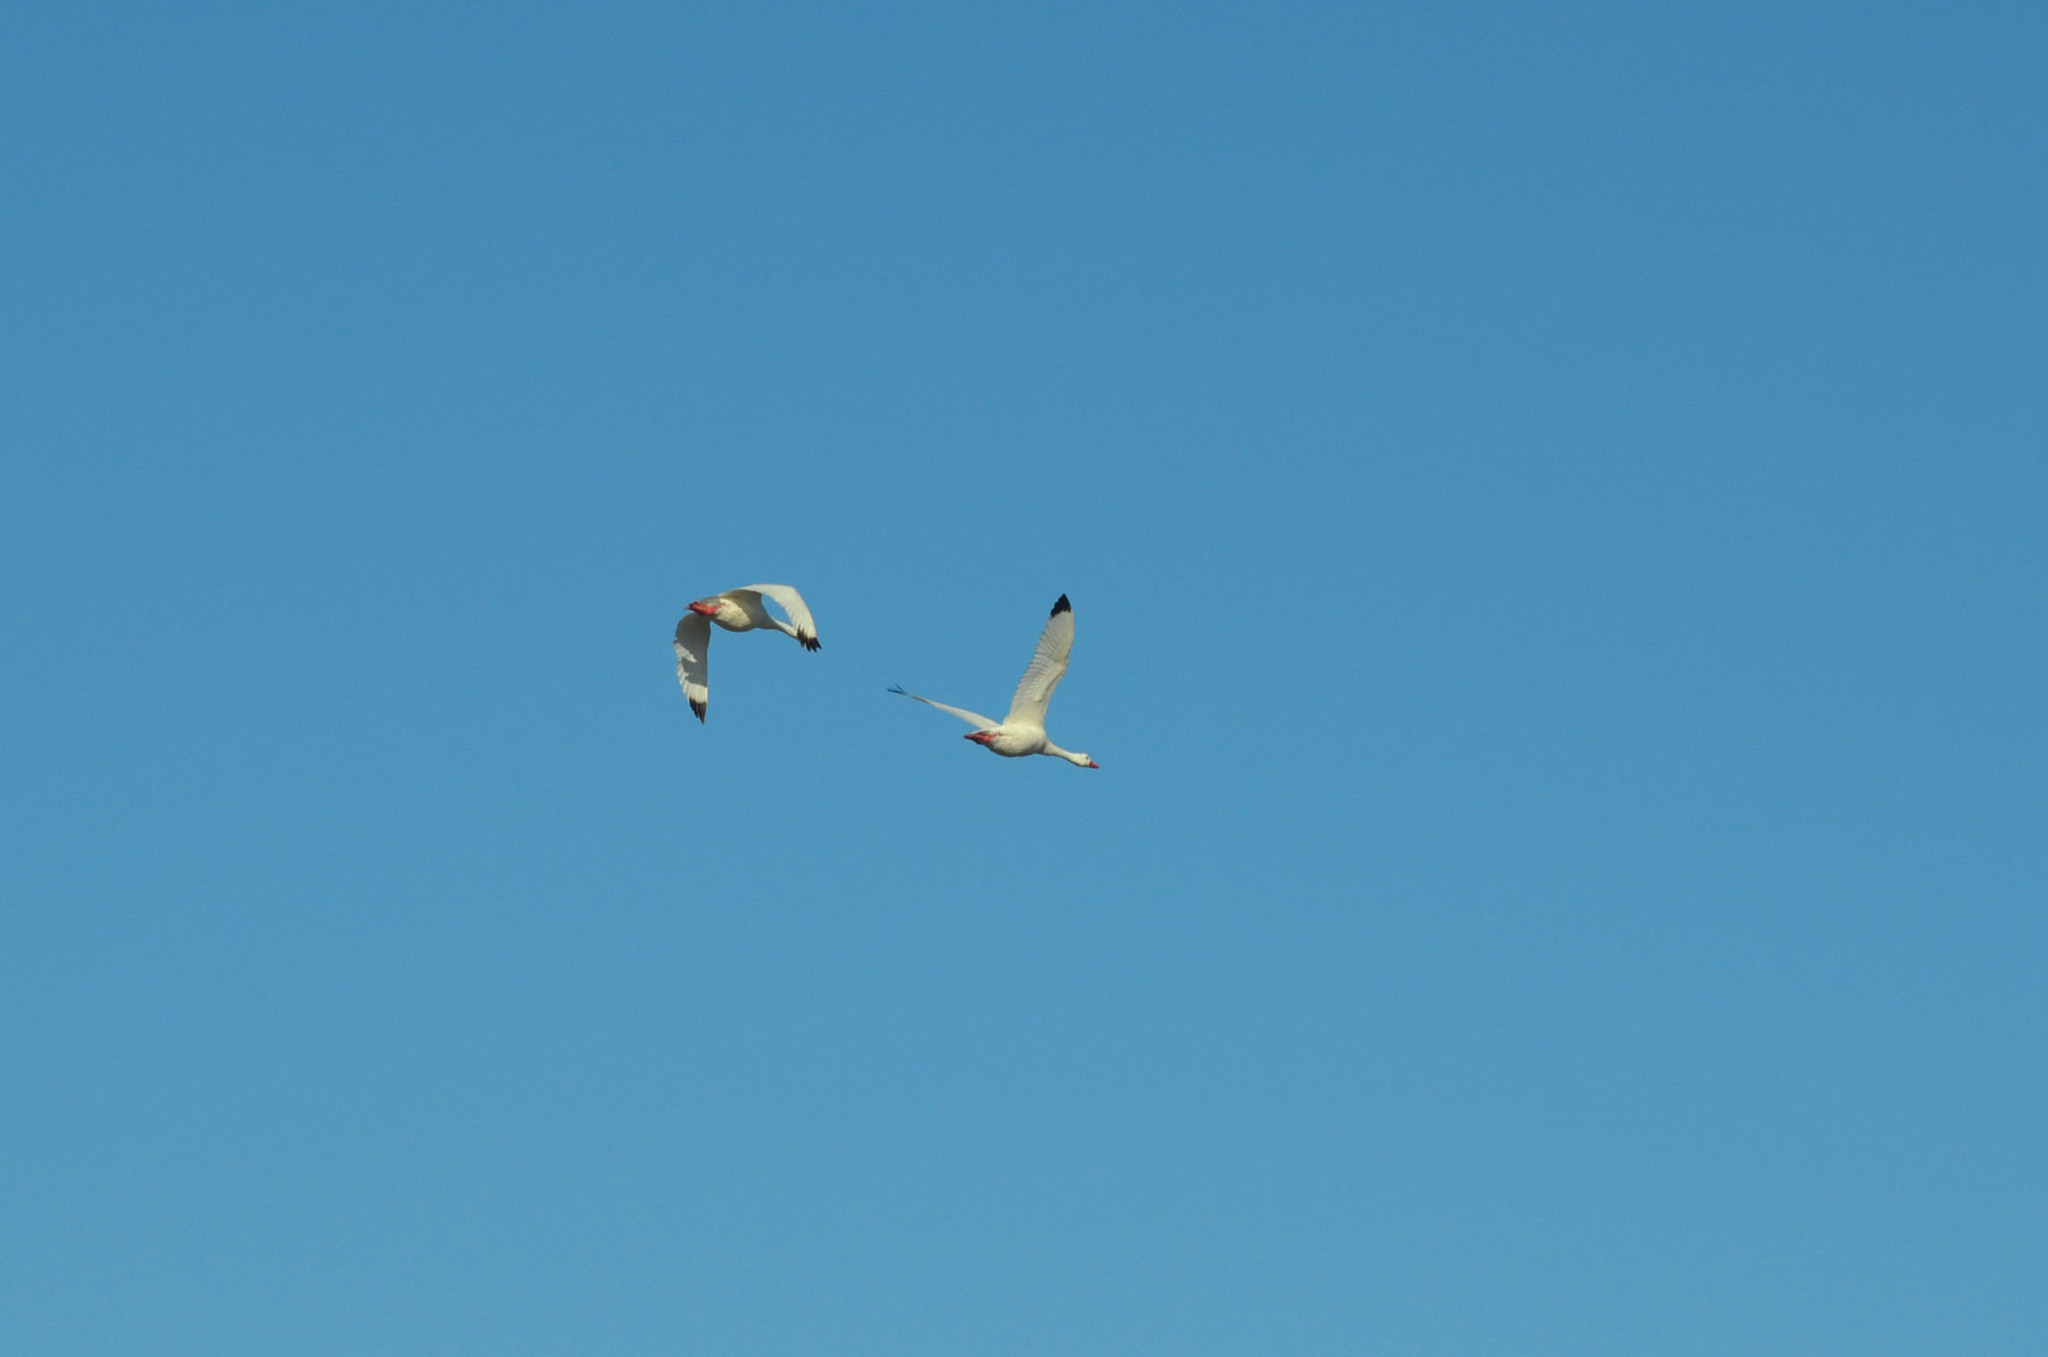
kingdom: Animalia
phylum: Chordata
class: Aves
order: Anseriformes
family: Anatidae
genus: Coscoroba
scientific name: Coscoroba coscoroba
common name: Coscoroba swan
